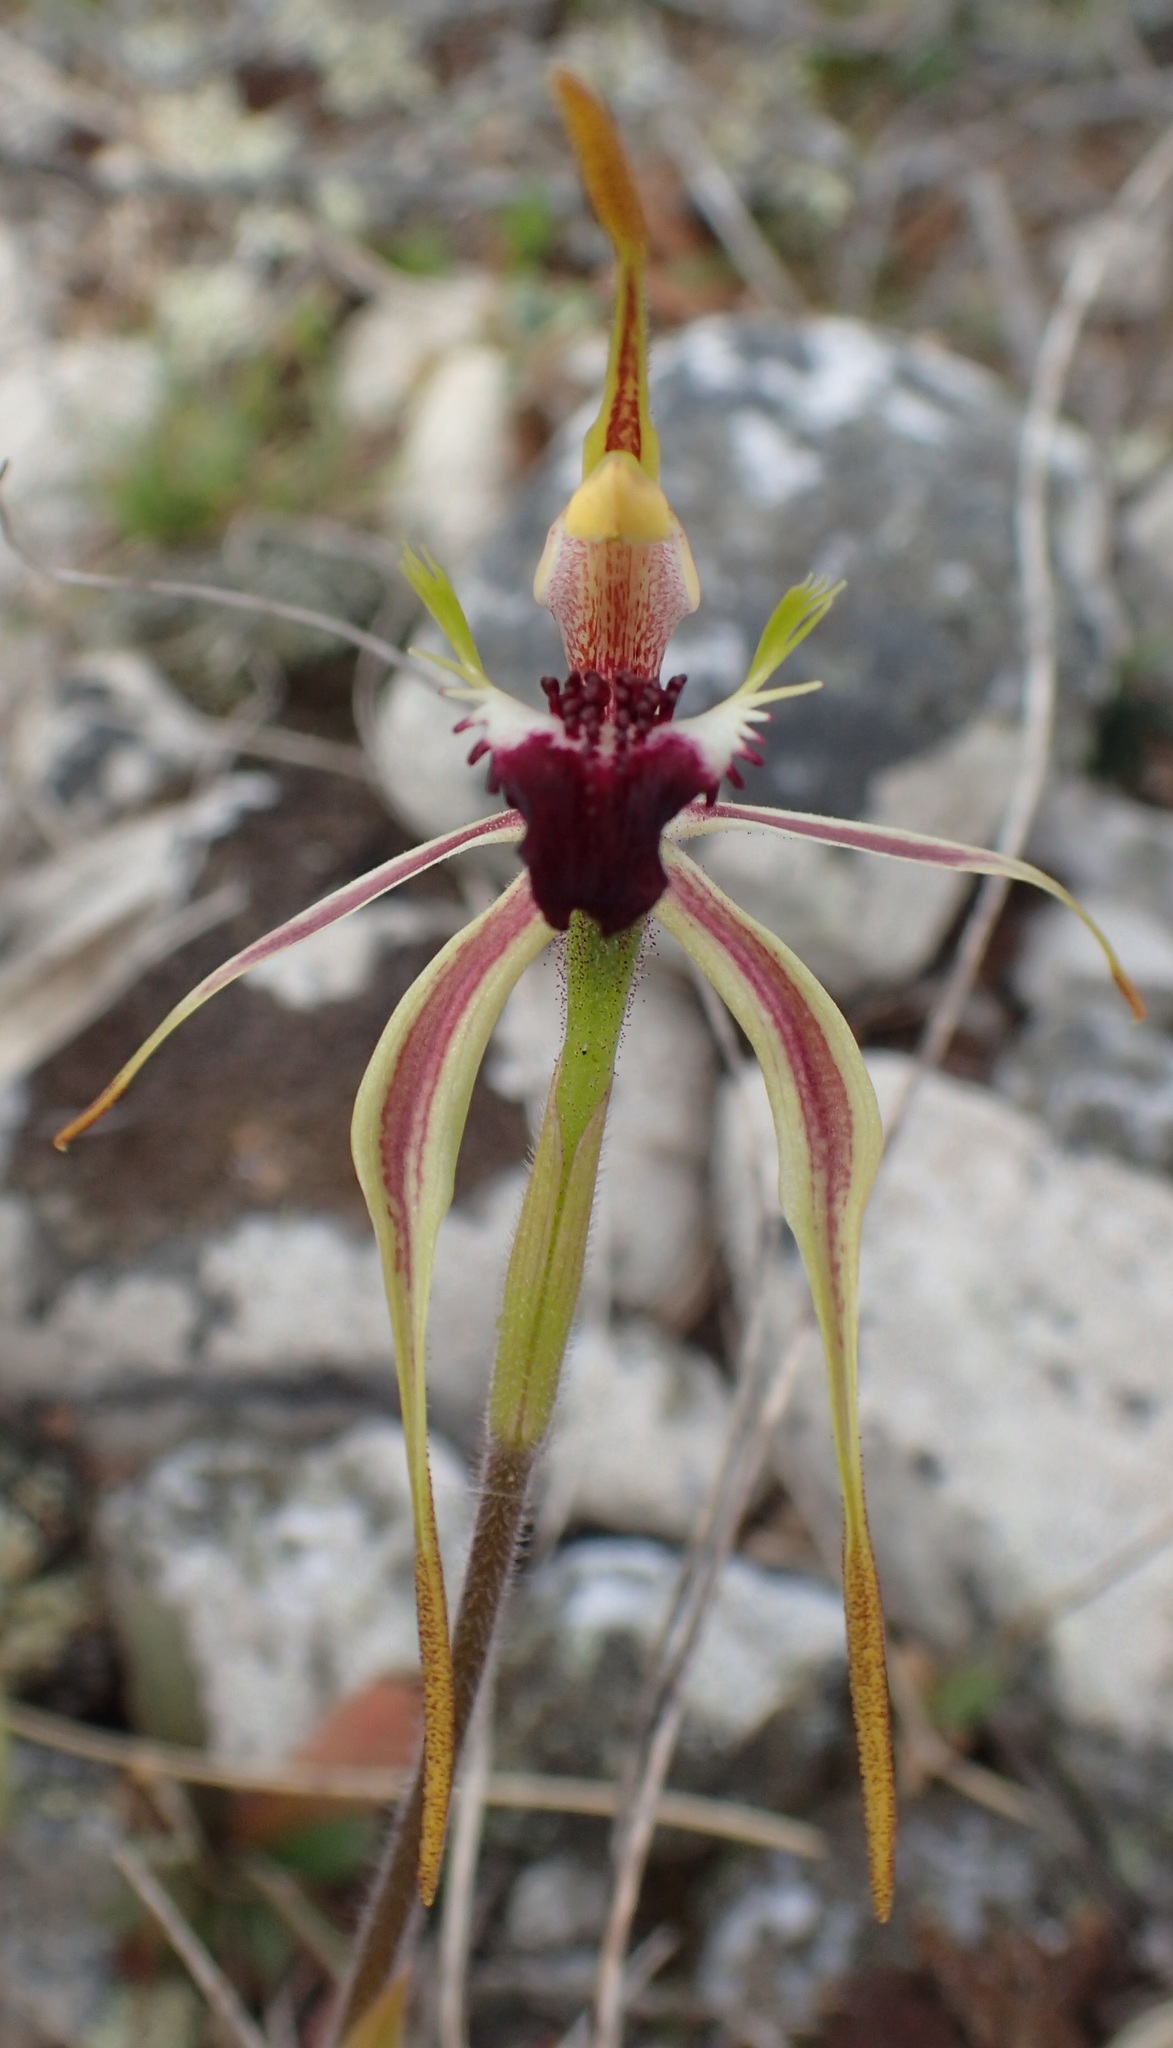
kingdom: Plantae
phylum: Tracheophyta
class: Liliopsida
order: Asparagales
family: Orchidaceae
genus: Caladenia
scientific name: Caladenia dilatata
